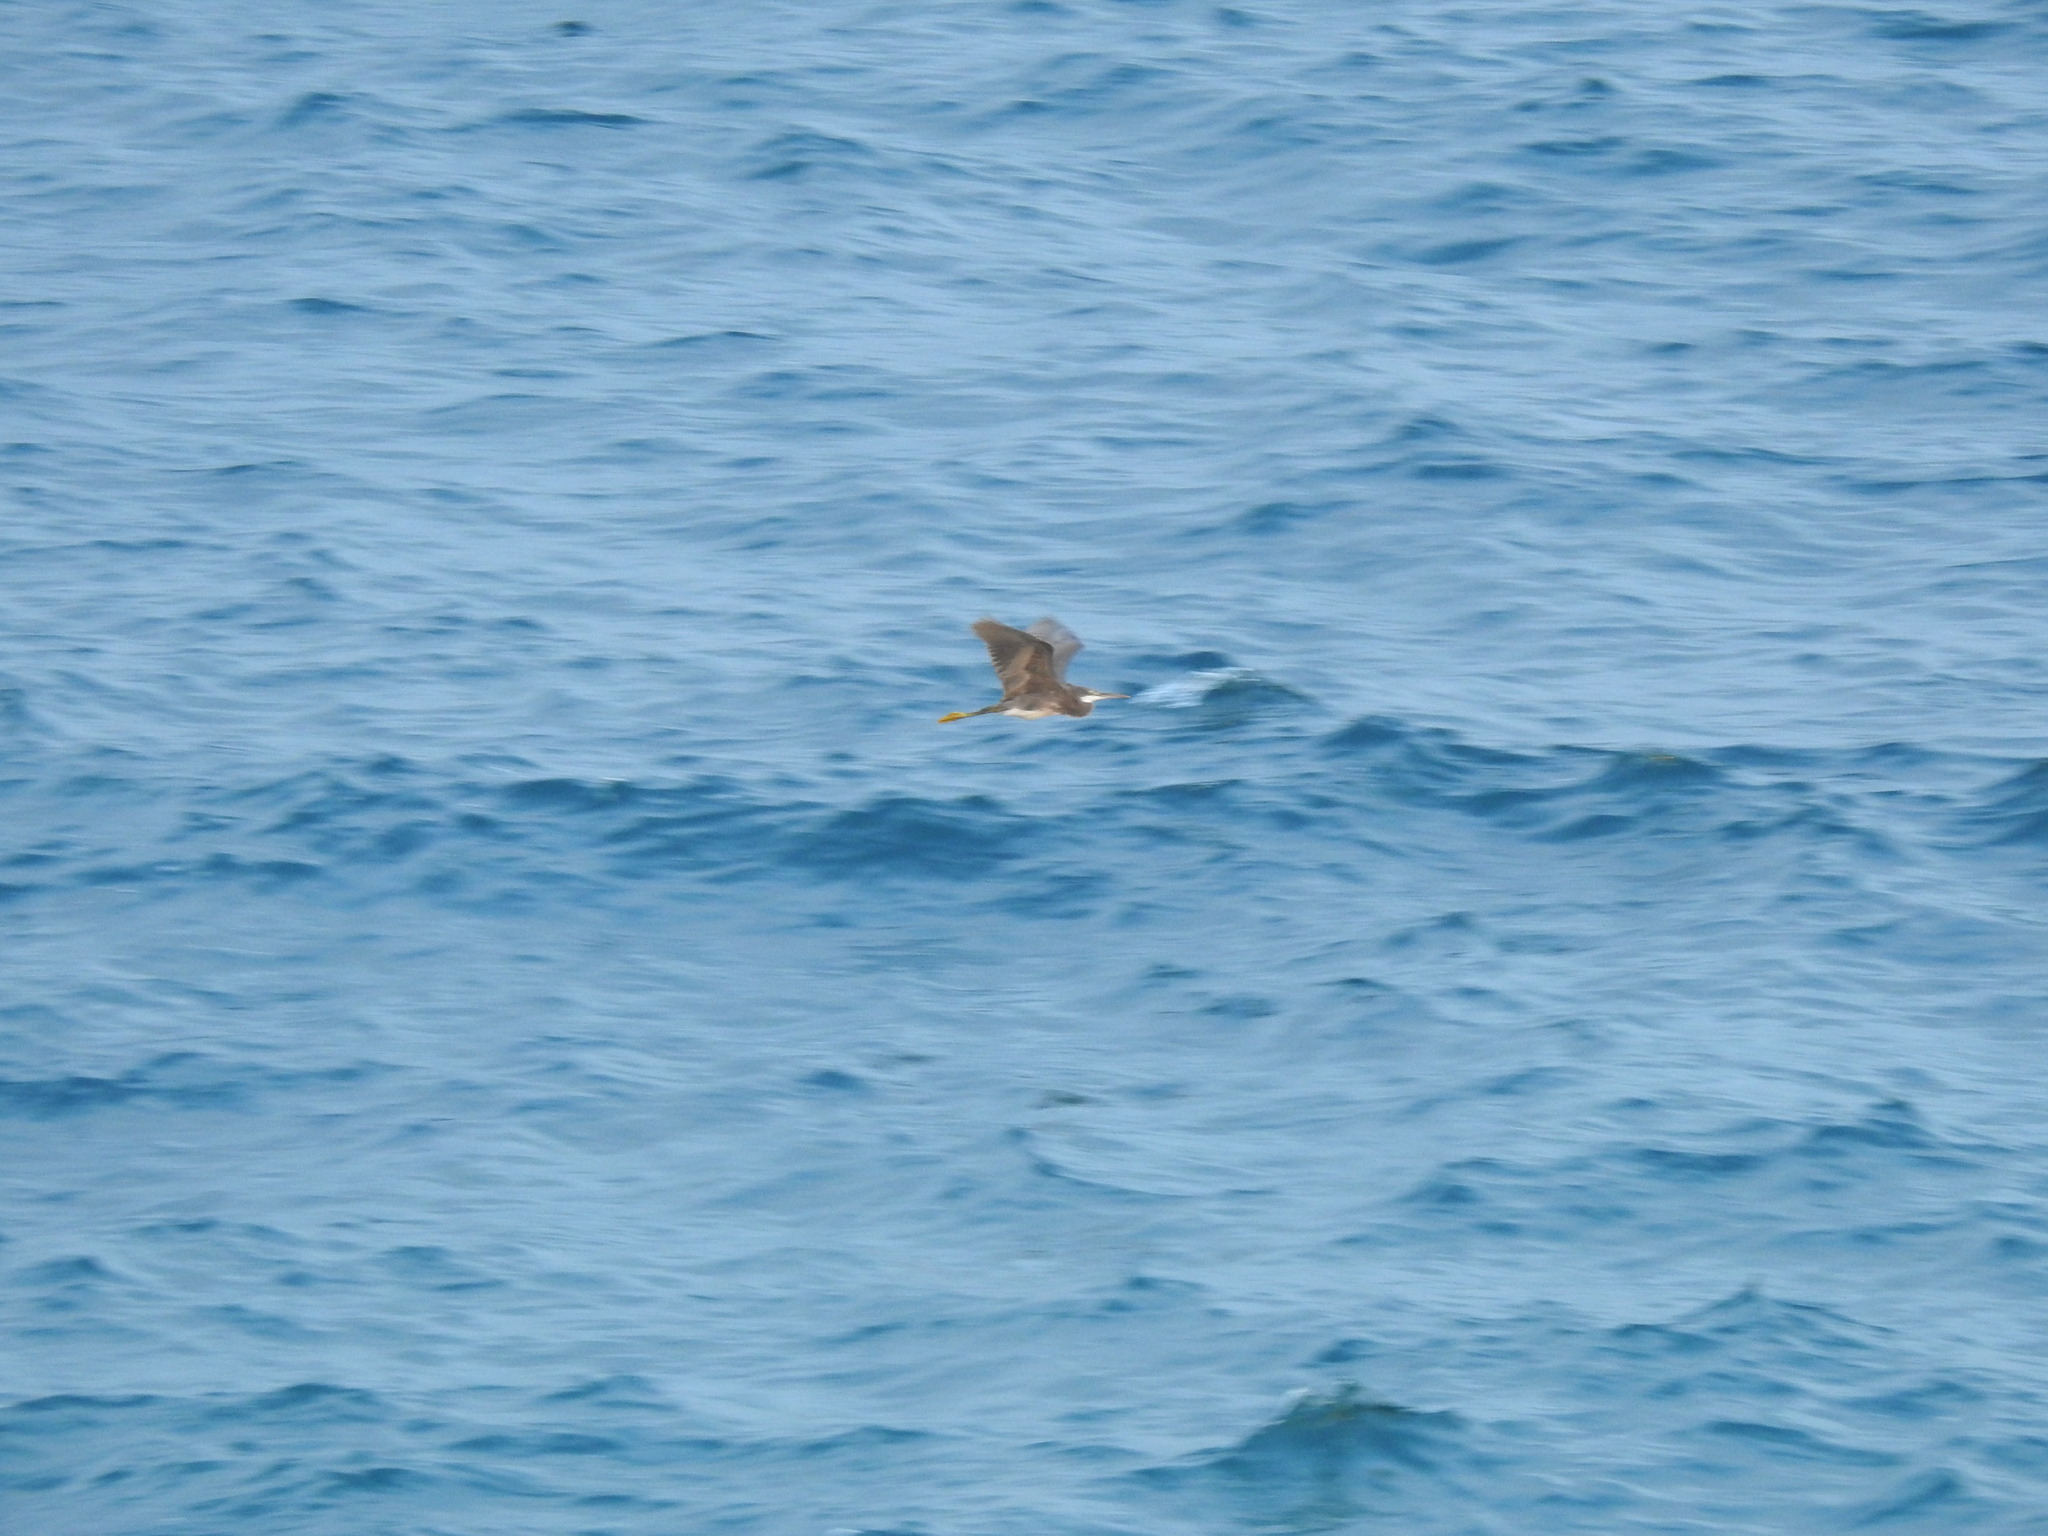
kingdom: Animalia
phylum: Chordata
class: Aves
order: Pelecaniformes
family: Ardeidae
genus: Egretta
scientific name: Egretta gularis
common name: Western reef-heron
